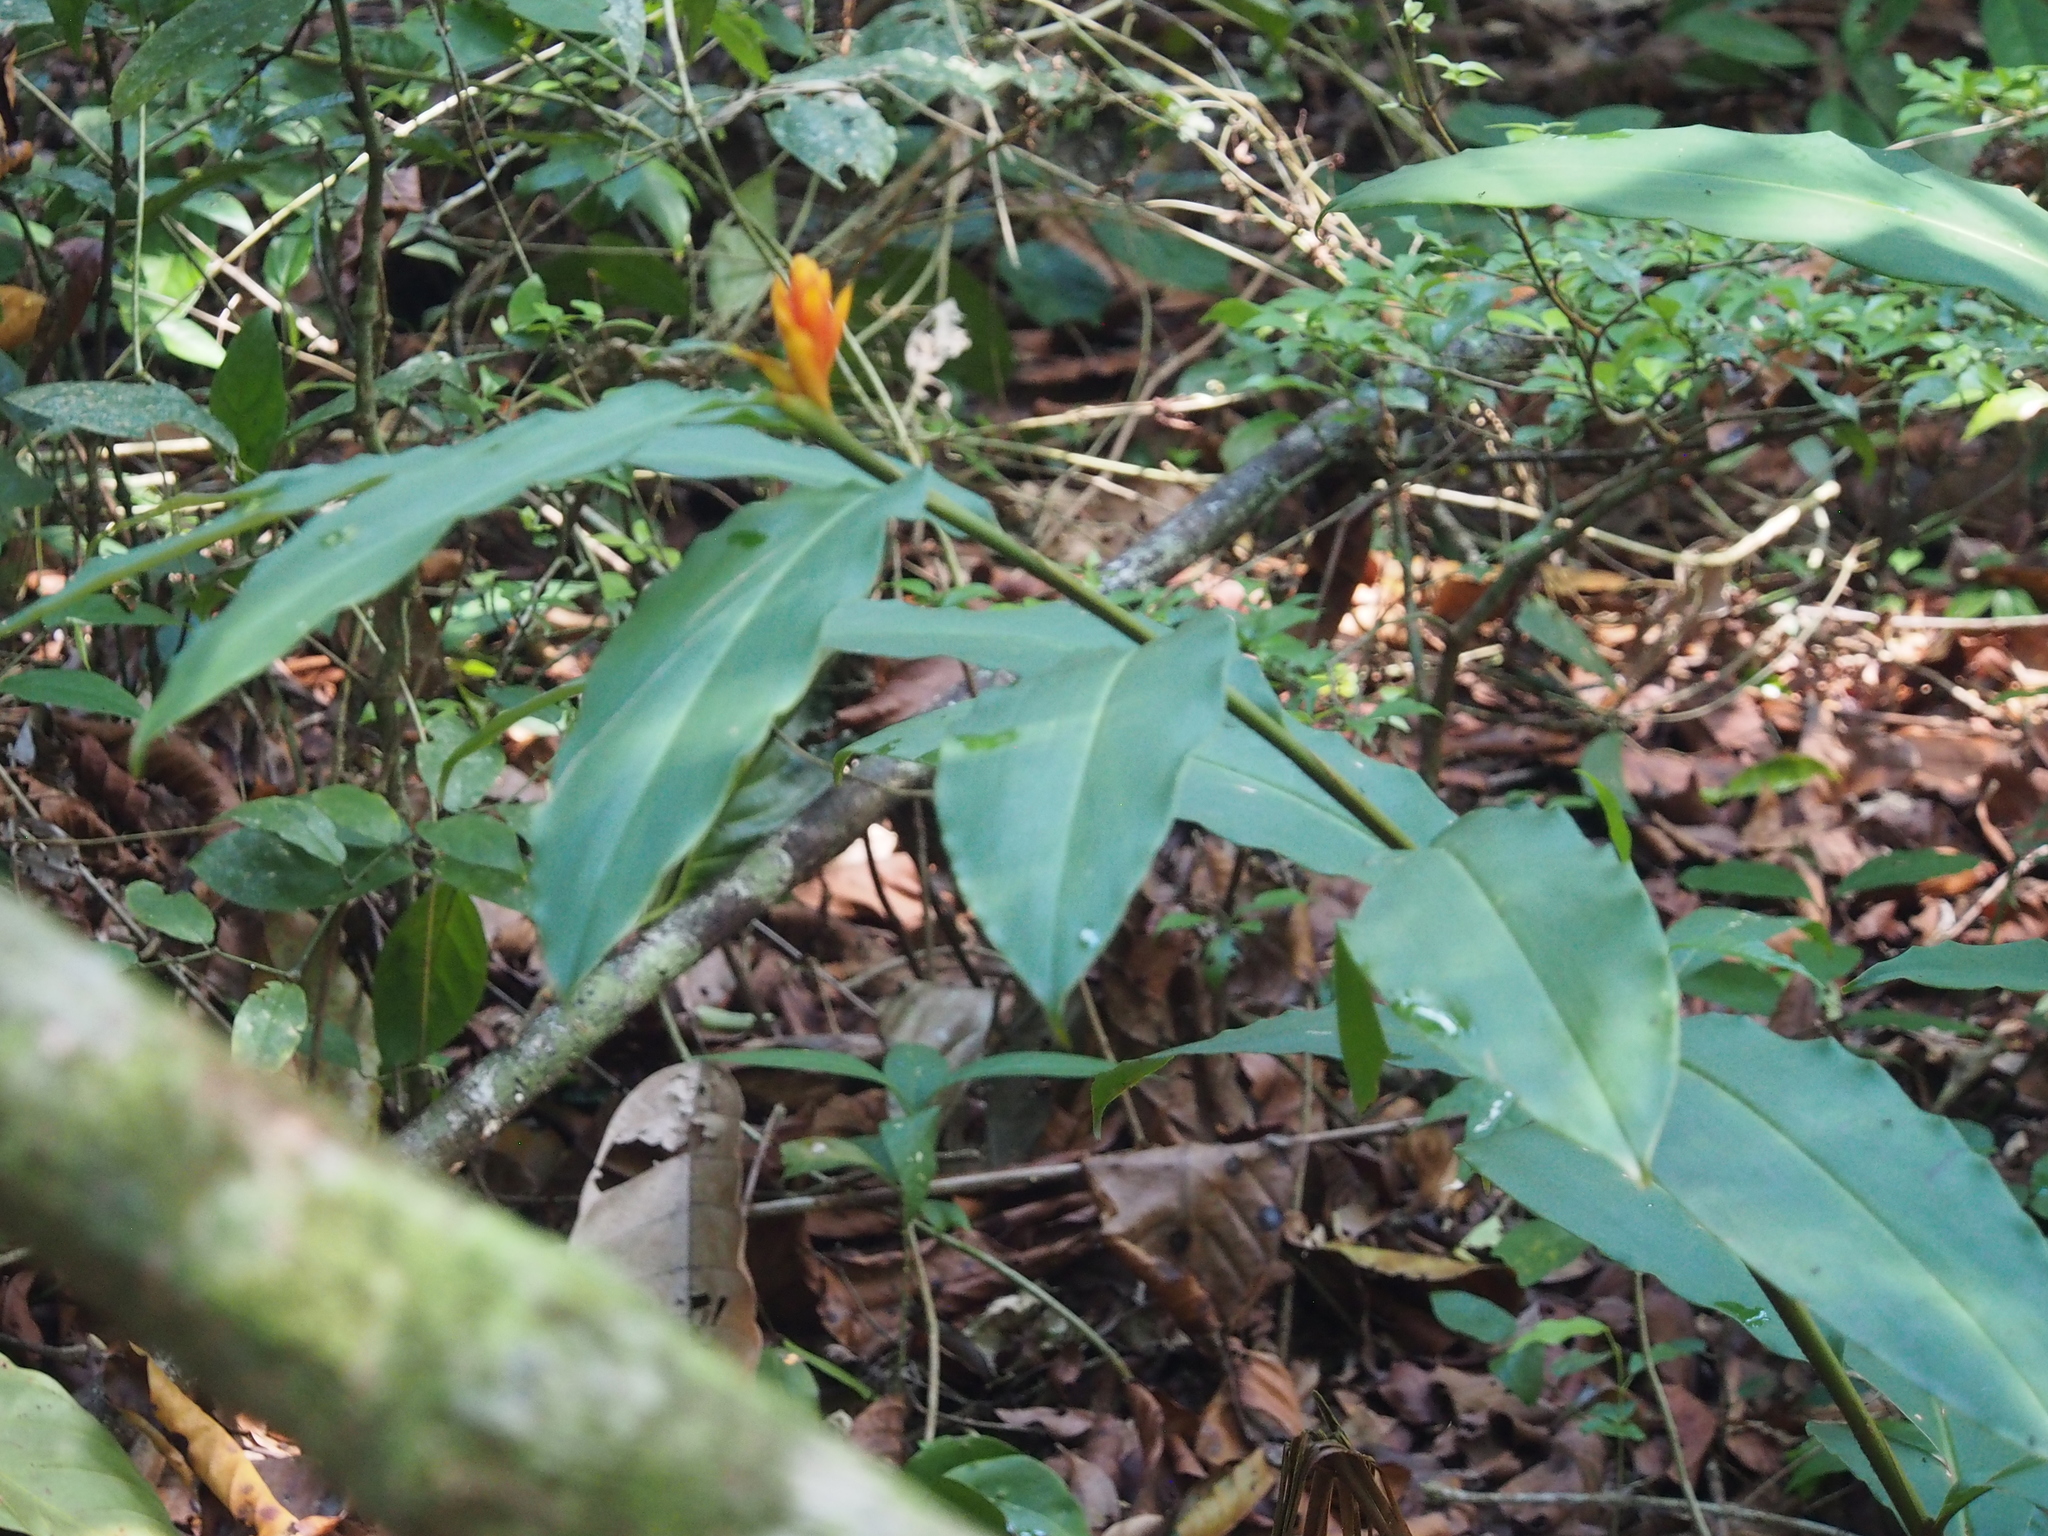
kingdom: Plantae
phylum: Tracheophyta
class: Liliopsida
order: Zingiberales
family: Zingiberaceae
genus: Renealmia
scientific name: Renealmia cernua
